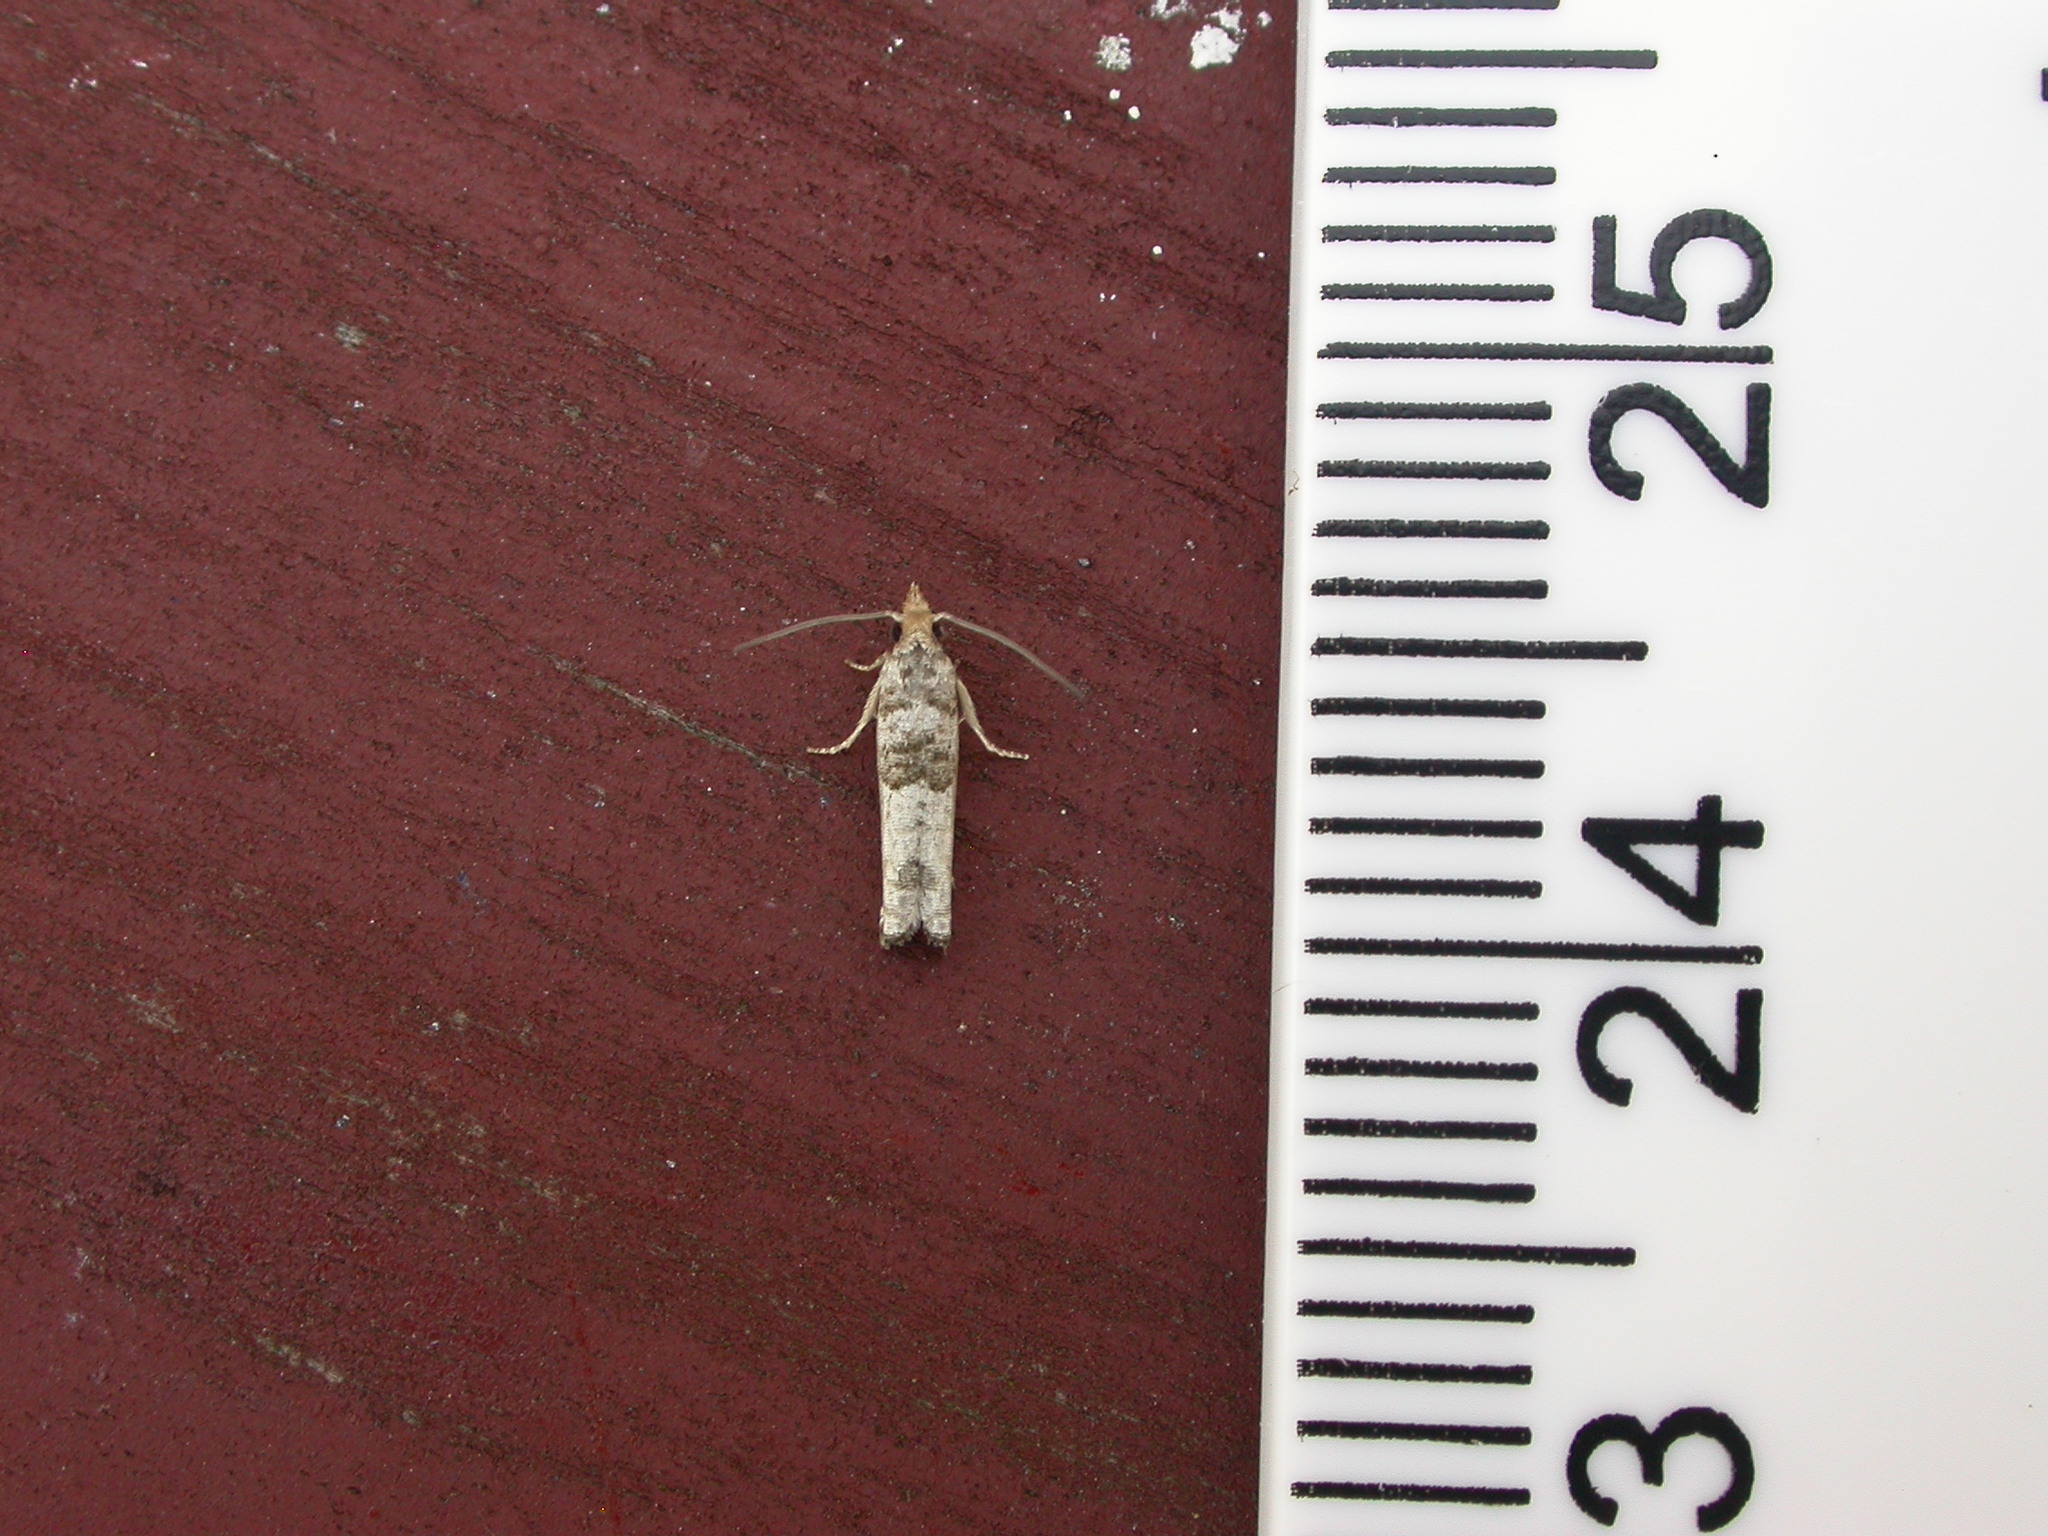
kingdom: Animalia
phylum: Arthropoda
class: Insecta
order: Lepidoptera
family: Tortricidae
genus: Spilonota
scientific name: Spilonota constrictana
